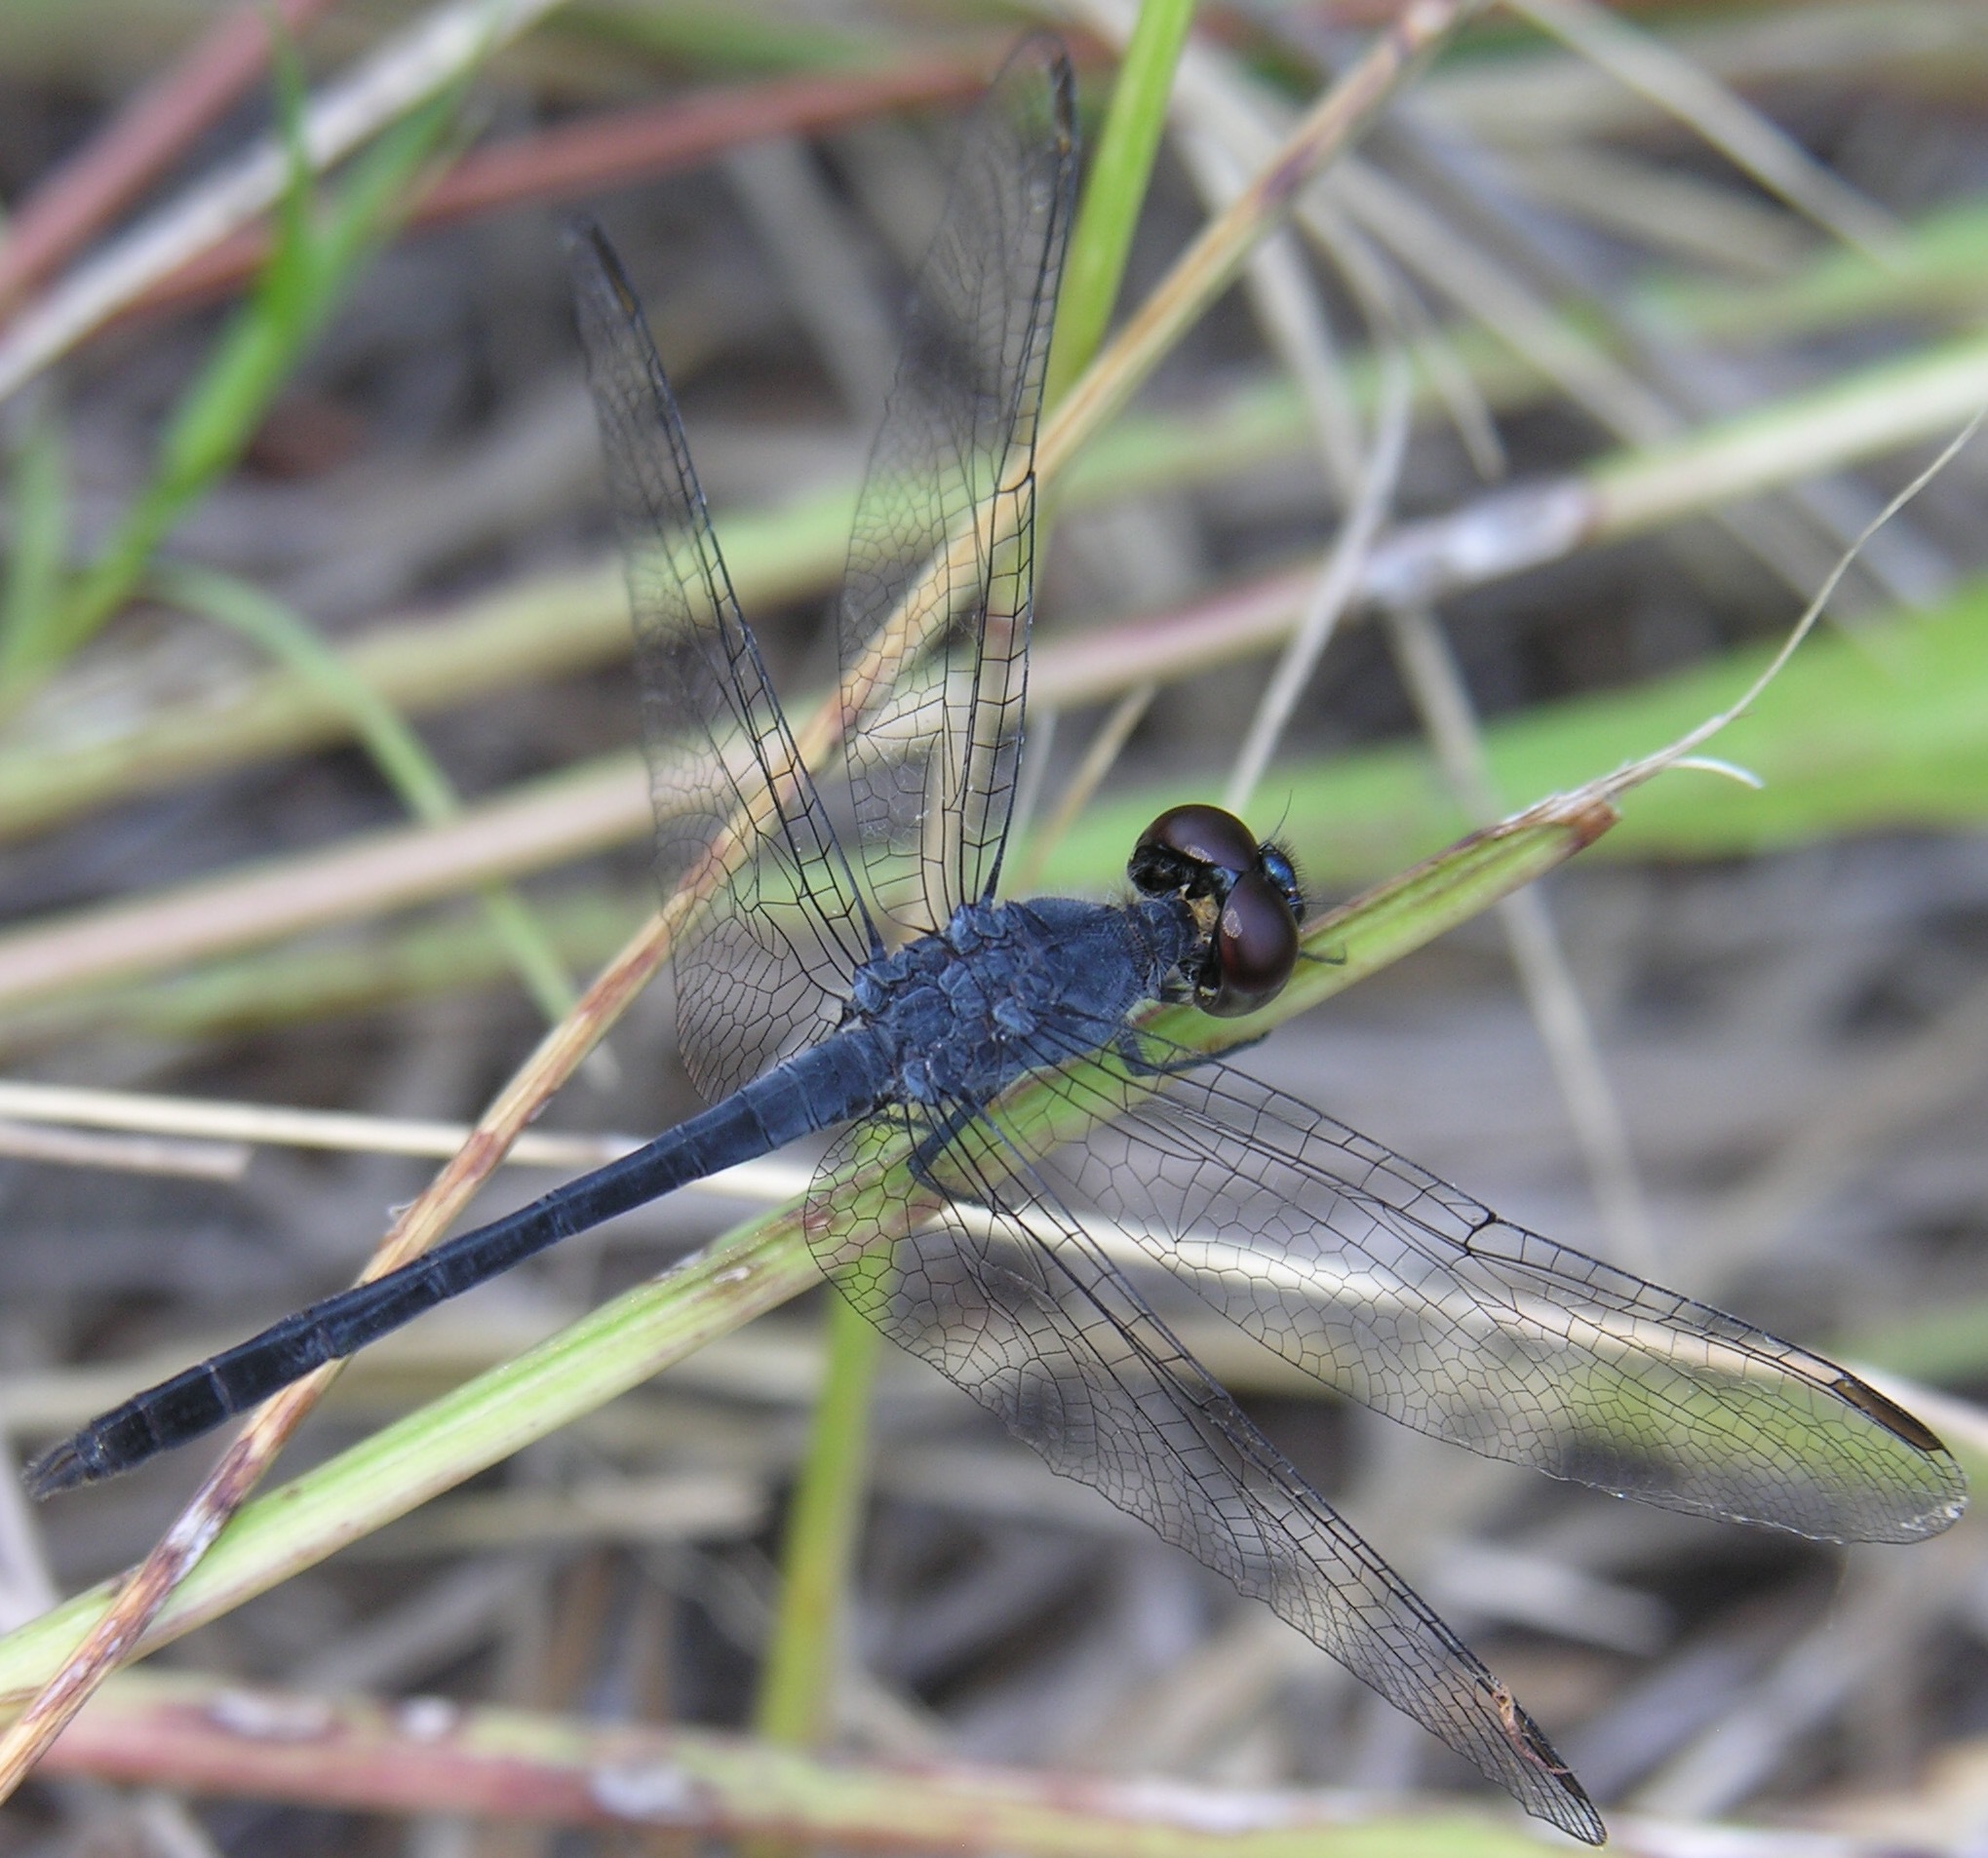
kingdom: Animalia
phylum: Arthropoda
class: Insecta
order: Odonata
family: Libellulidae
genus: Erythrodiplax
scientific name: Erythrodiplax berenice
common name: Seaside dragonlet
